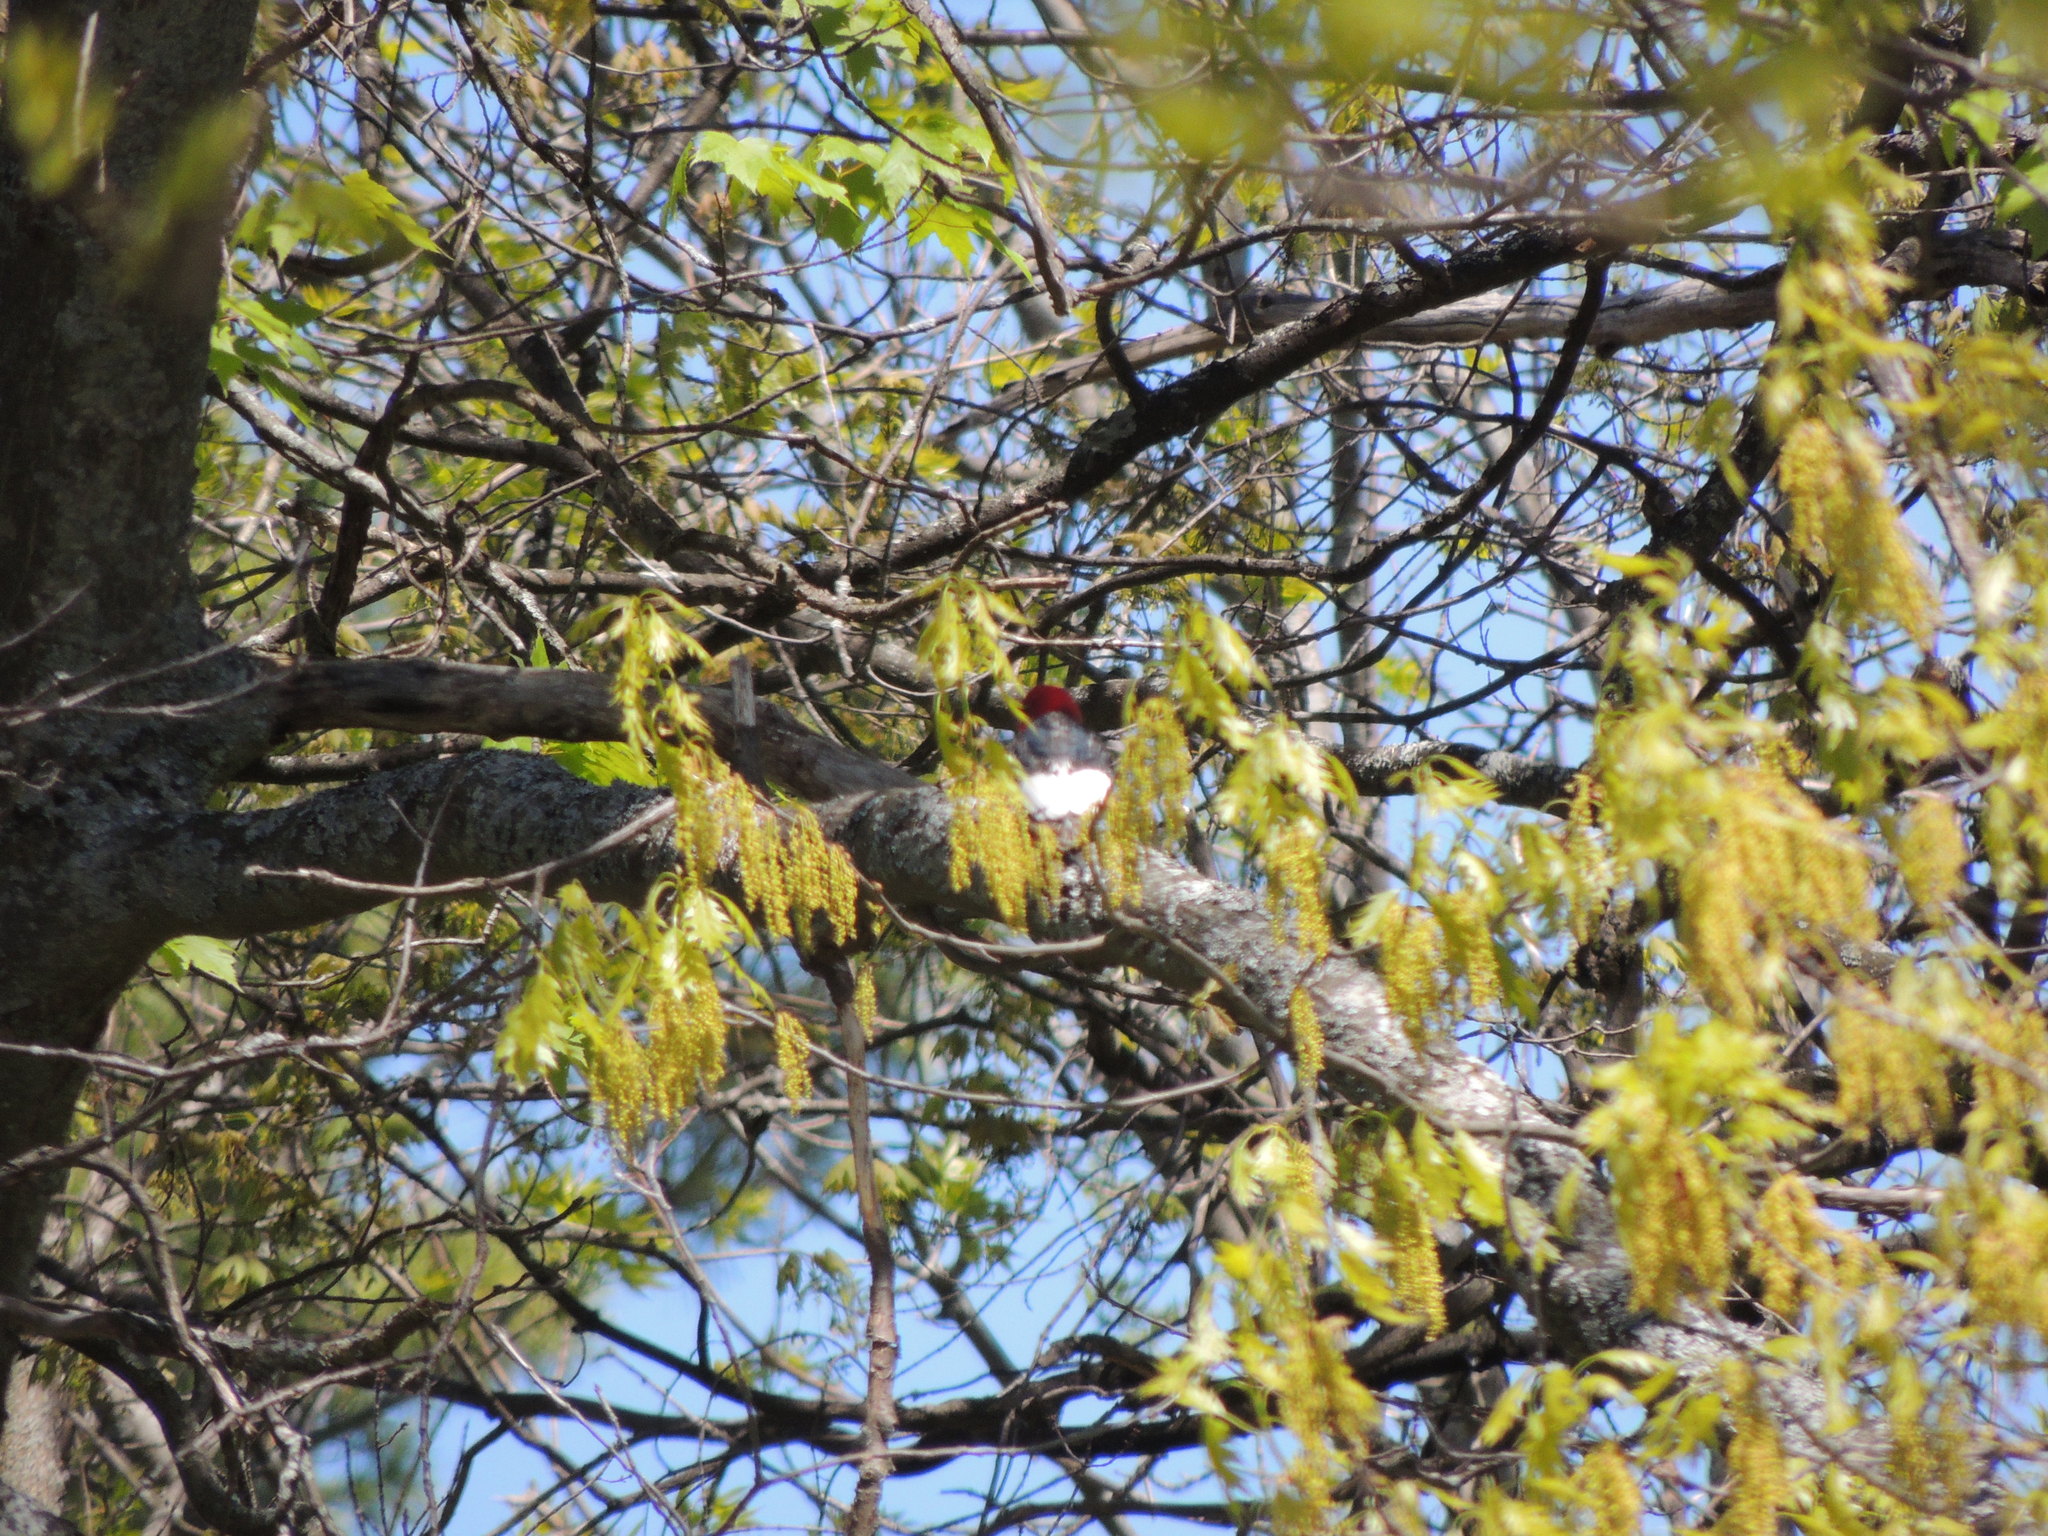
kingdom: Animalia
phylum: Chordata
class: Aves
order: Piciformes
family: Picidae
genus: Melanerpes
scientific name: Melanerpes erythrocephalus
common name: Red-headed woodpecker
